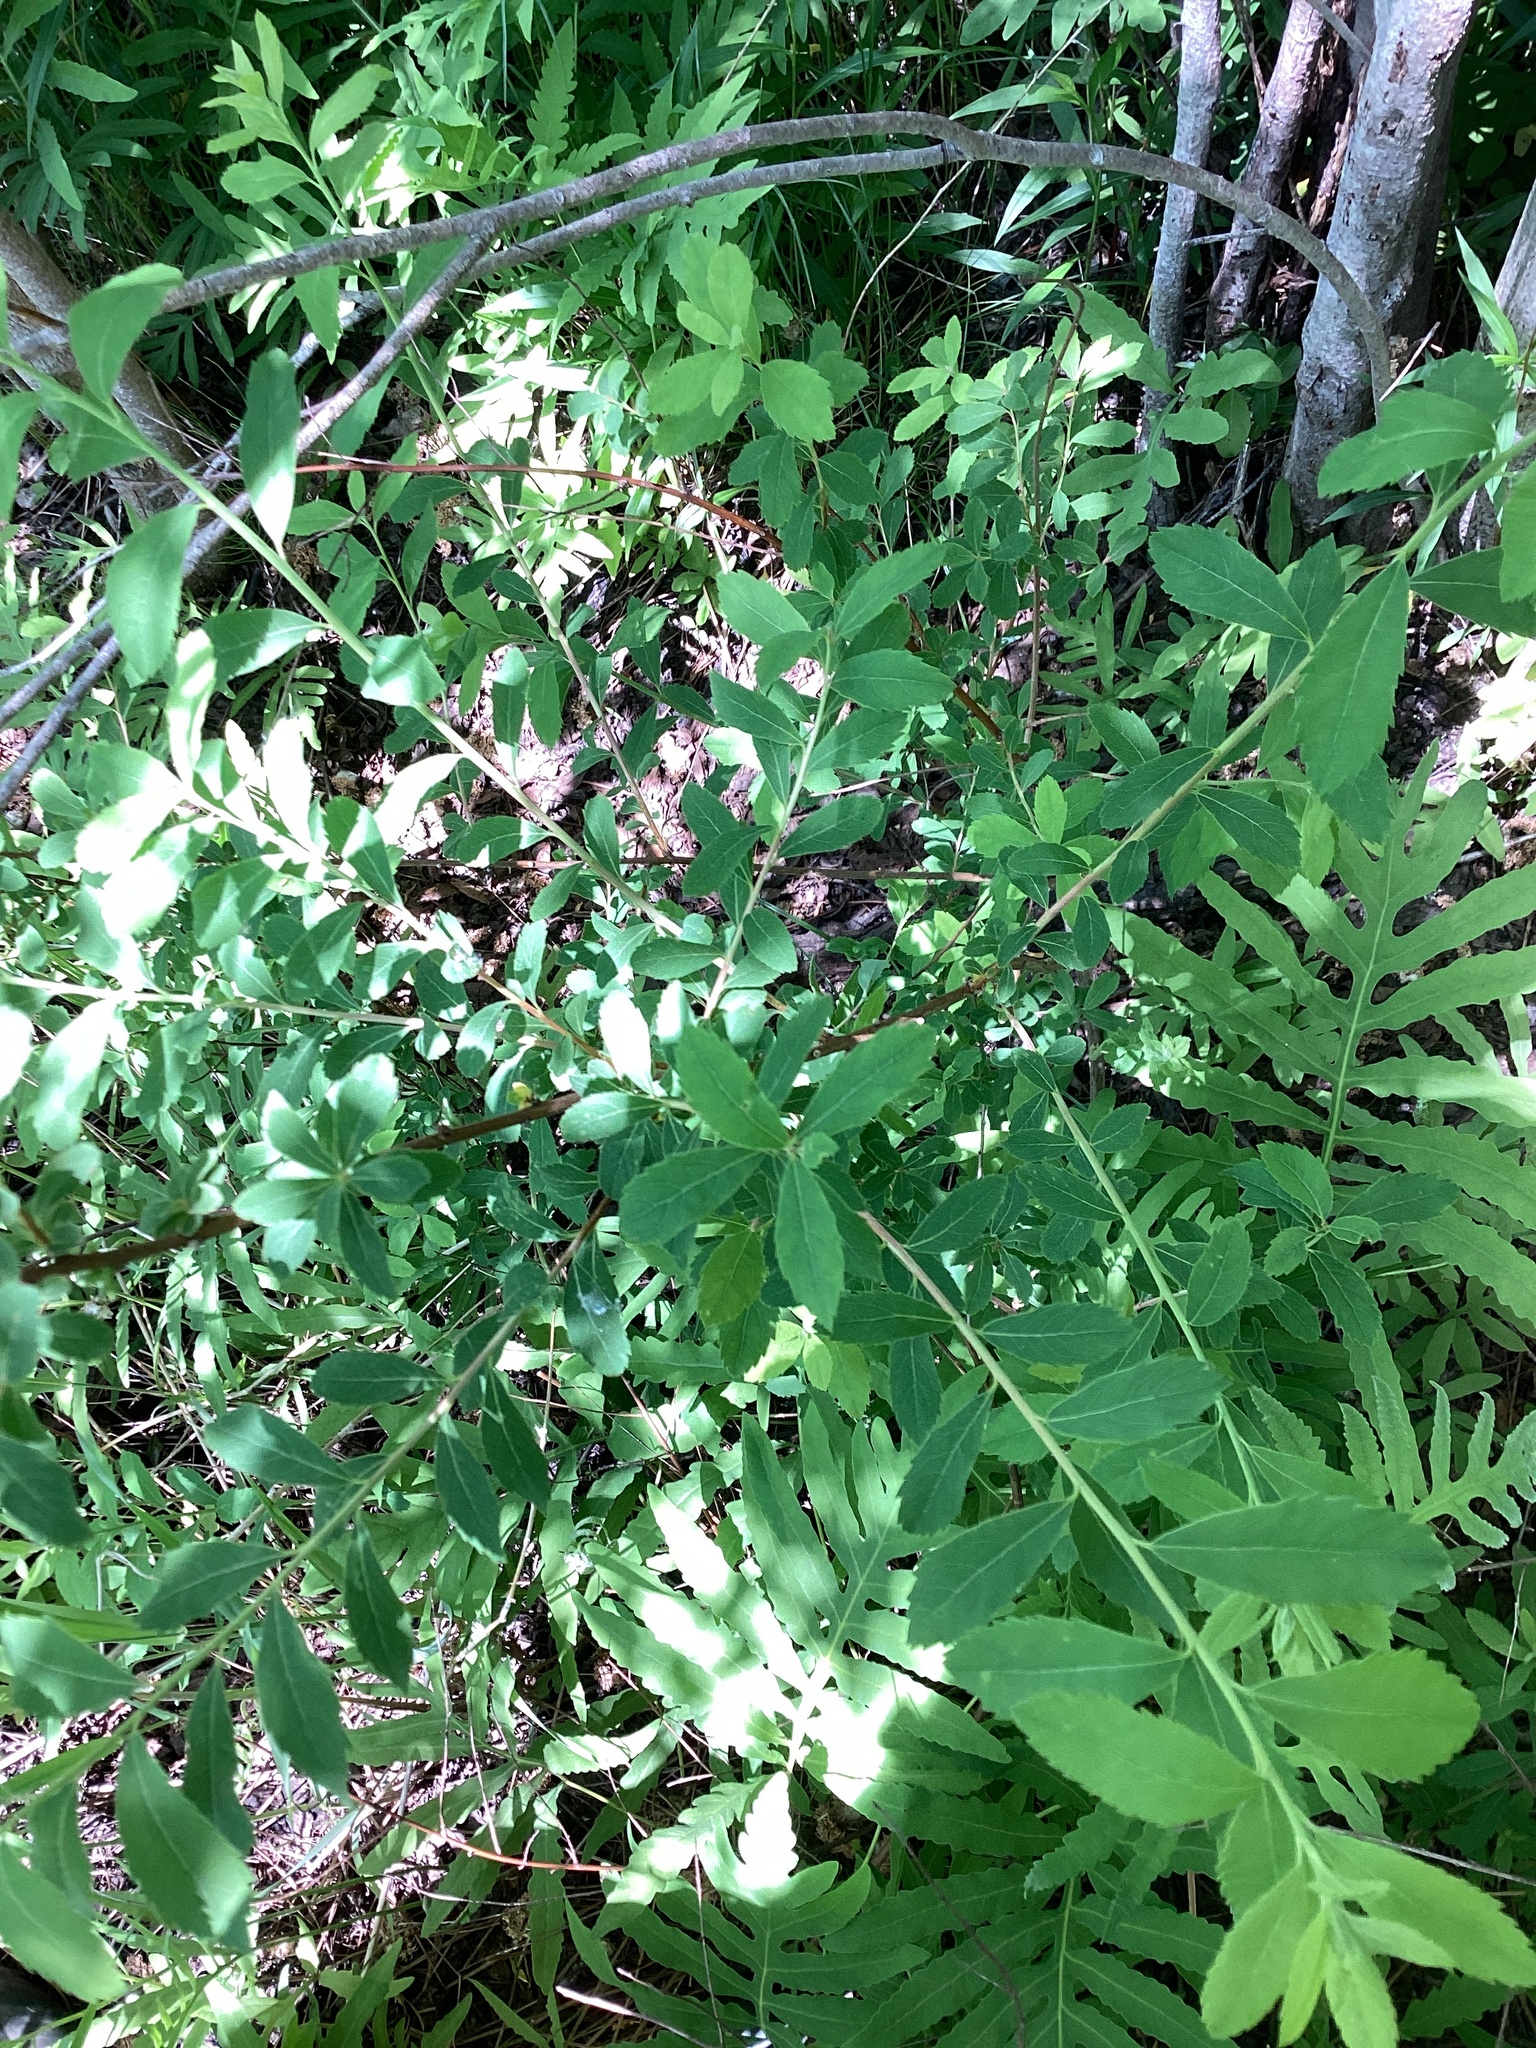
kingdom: Plantae
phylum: Tracheophyta
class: Magnoliopsida
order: Rosales
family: Rosaceae
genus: Spiraea
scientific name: Spiraea alba
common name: Pale bridewort
